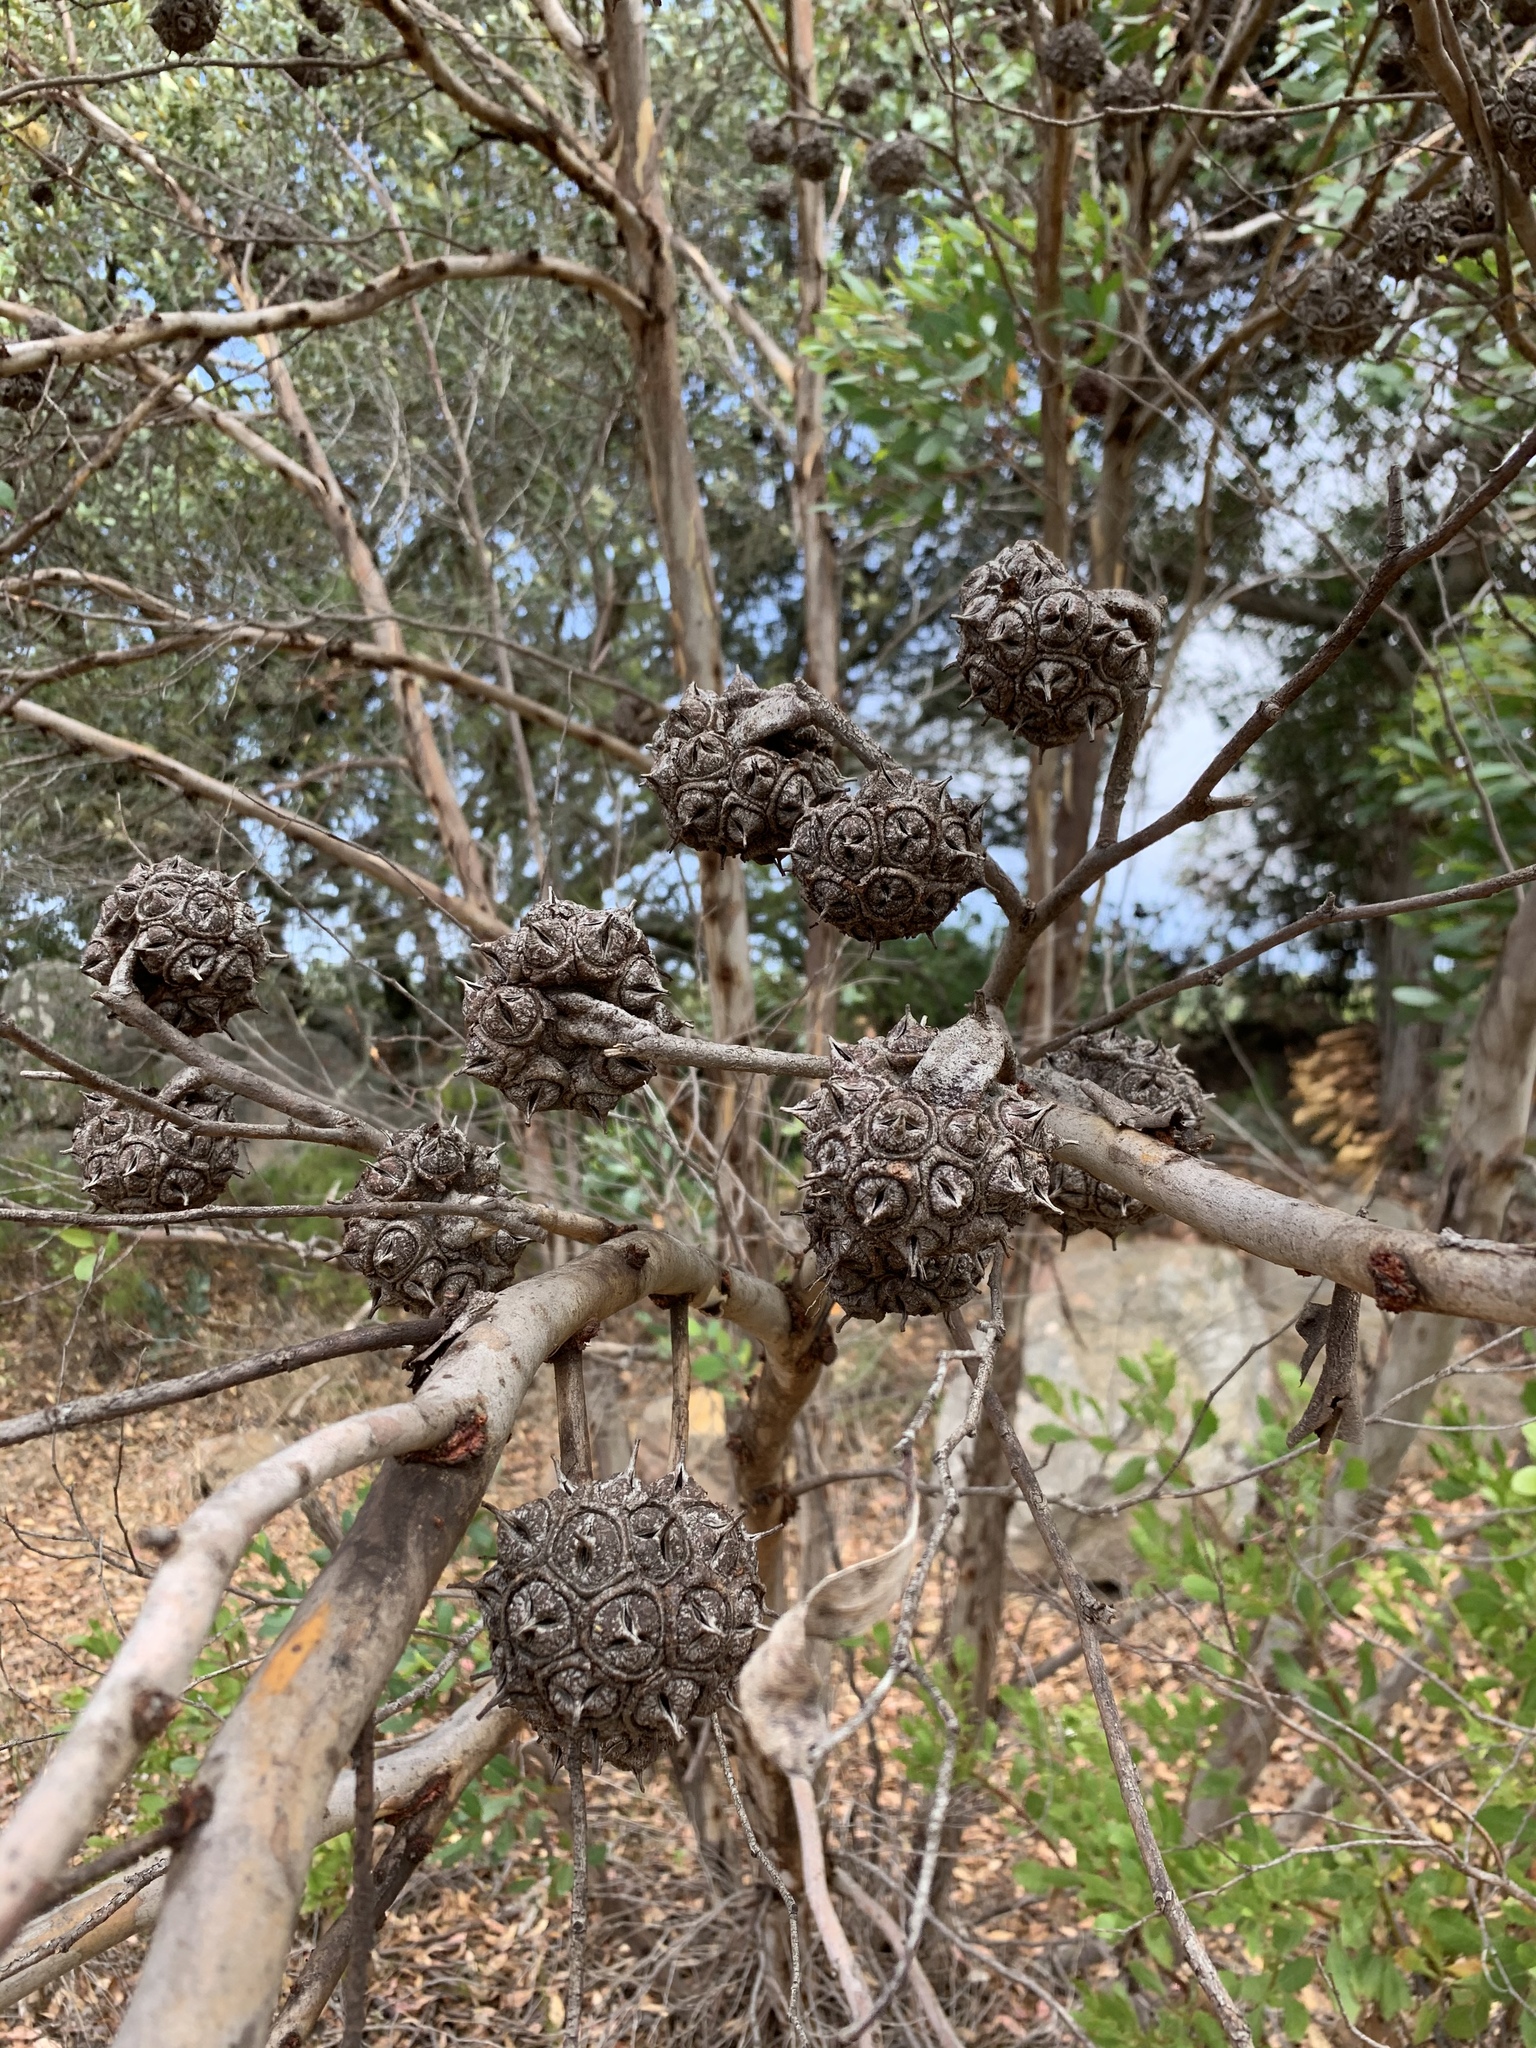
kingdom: Plantae
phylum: Tracheophyta
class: Magnoliopsida
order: Myrtales
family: Myrtaceae
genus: Eucalyptus
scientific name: Eucalyptus conferruminata
